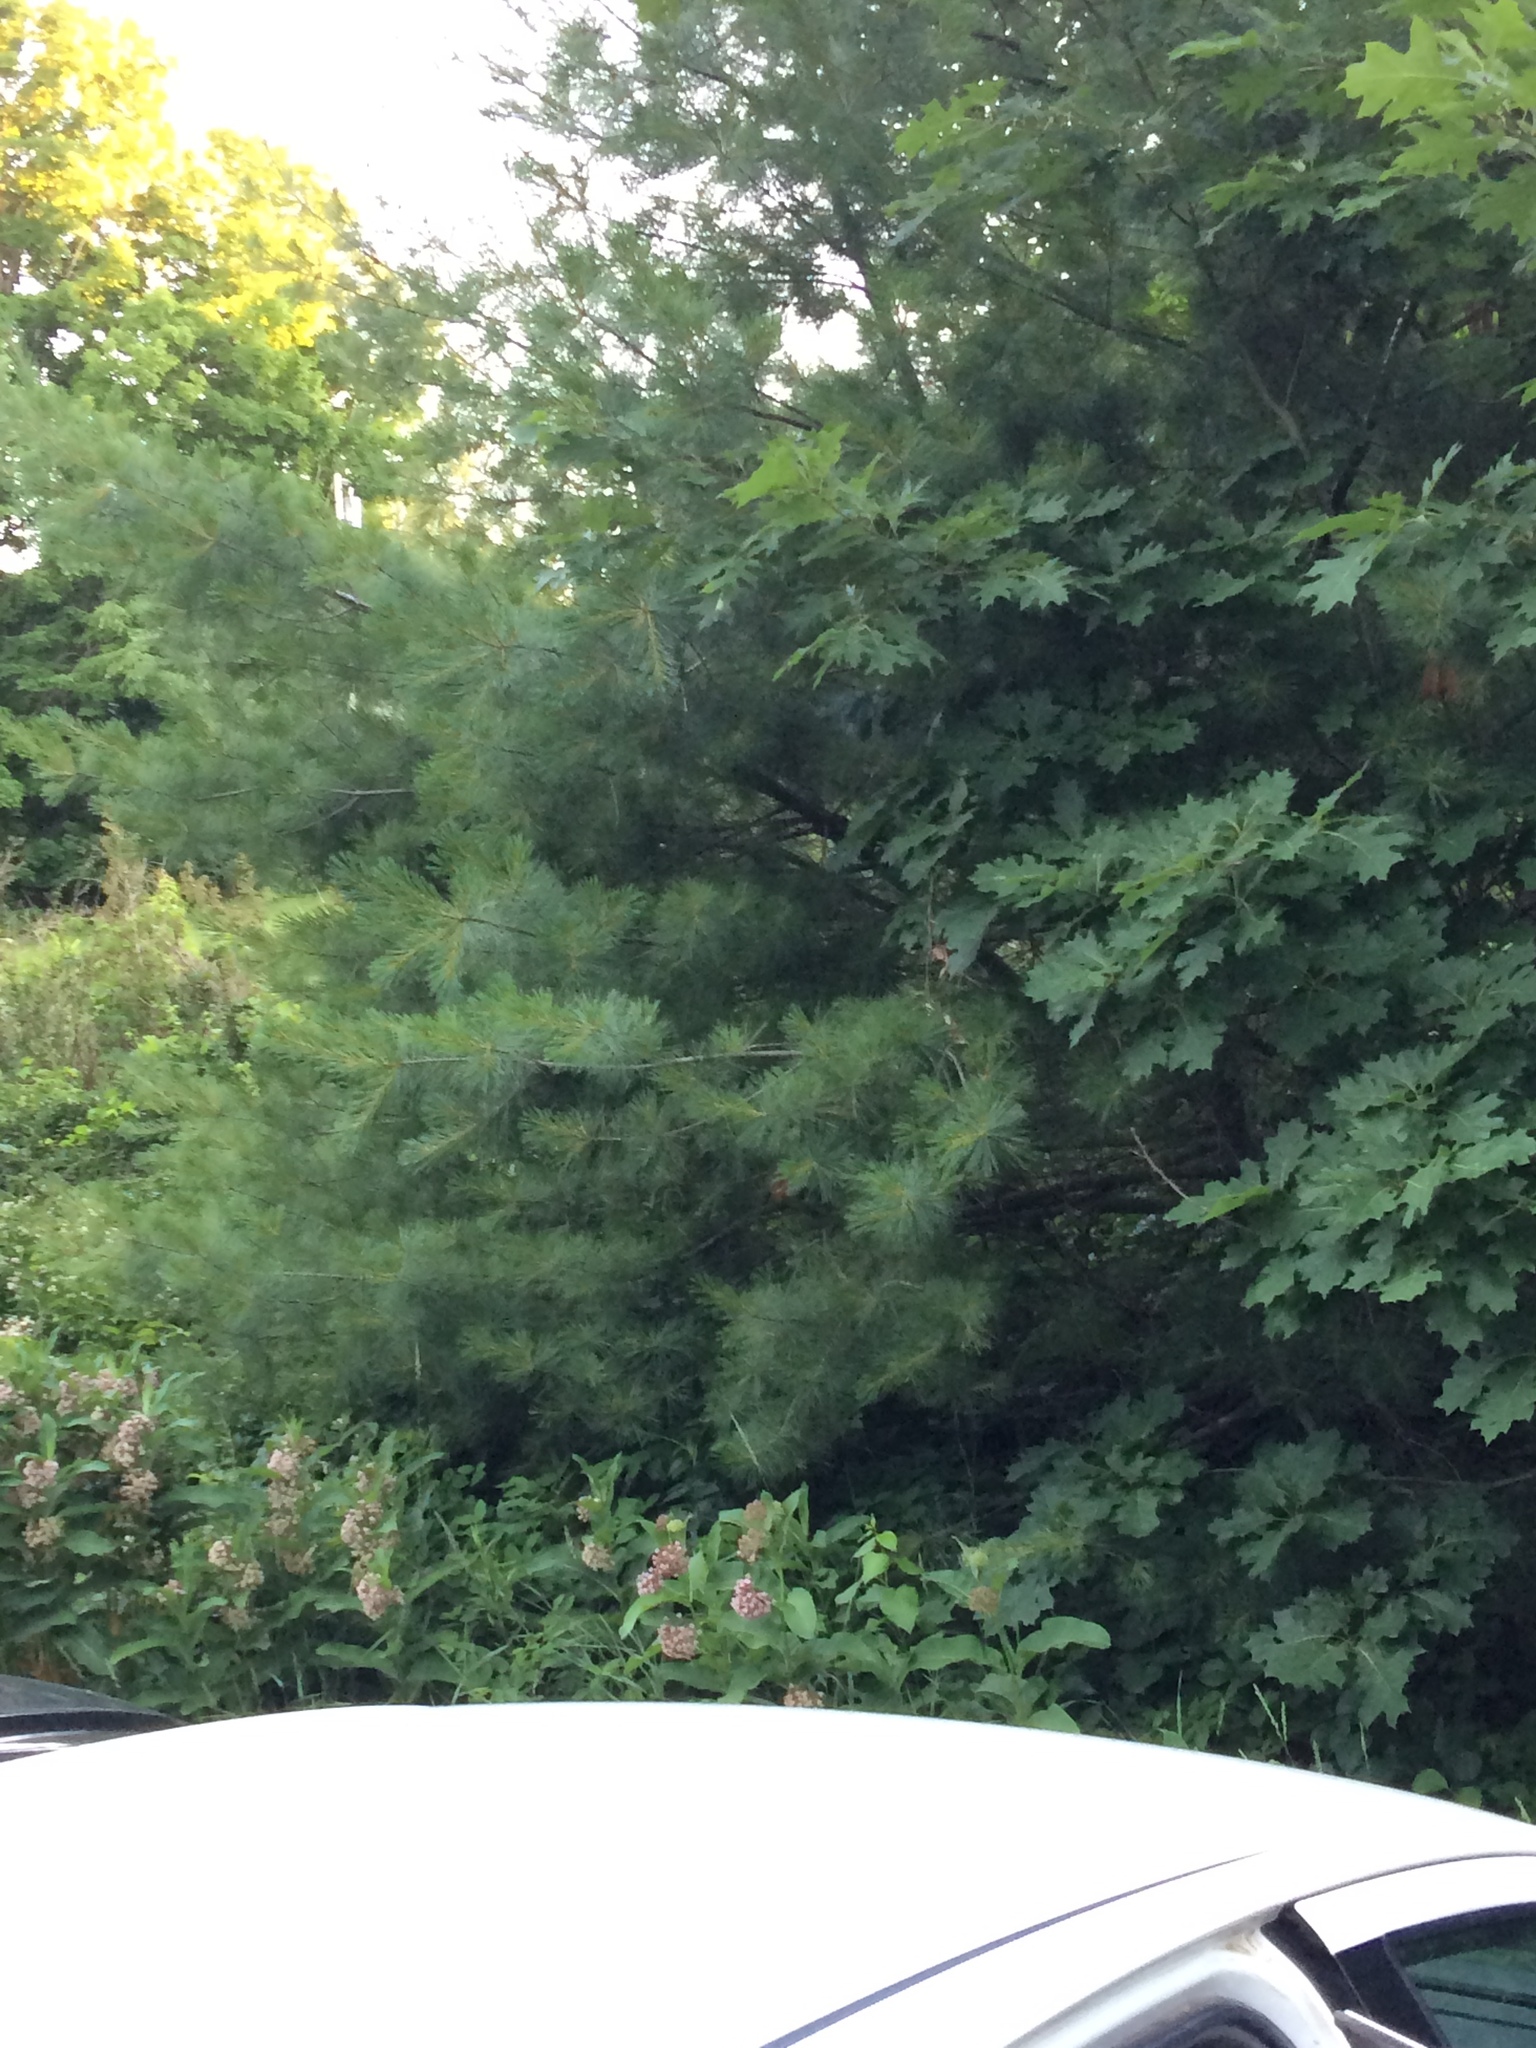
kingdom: Plantae
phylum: Tracheophyta
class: Pinopsida
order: Pinales
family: Pinaceae
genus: Pinus
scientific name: Pinus strobus
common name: Weymouth pine
